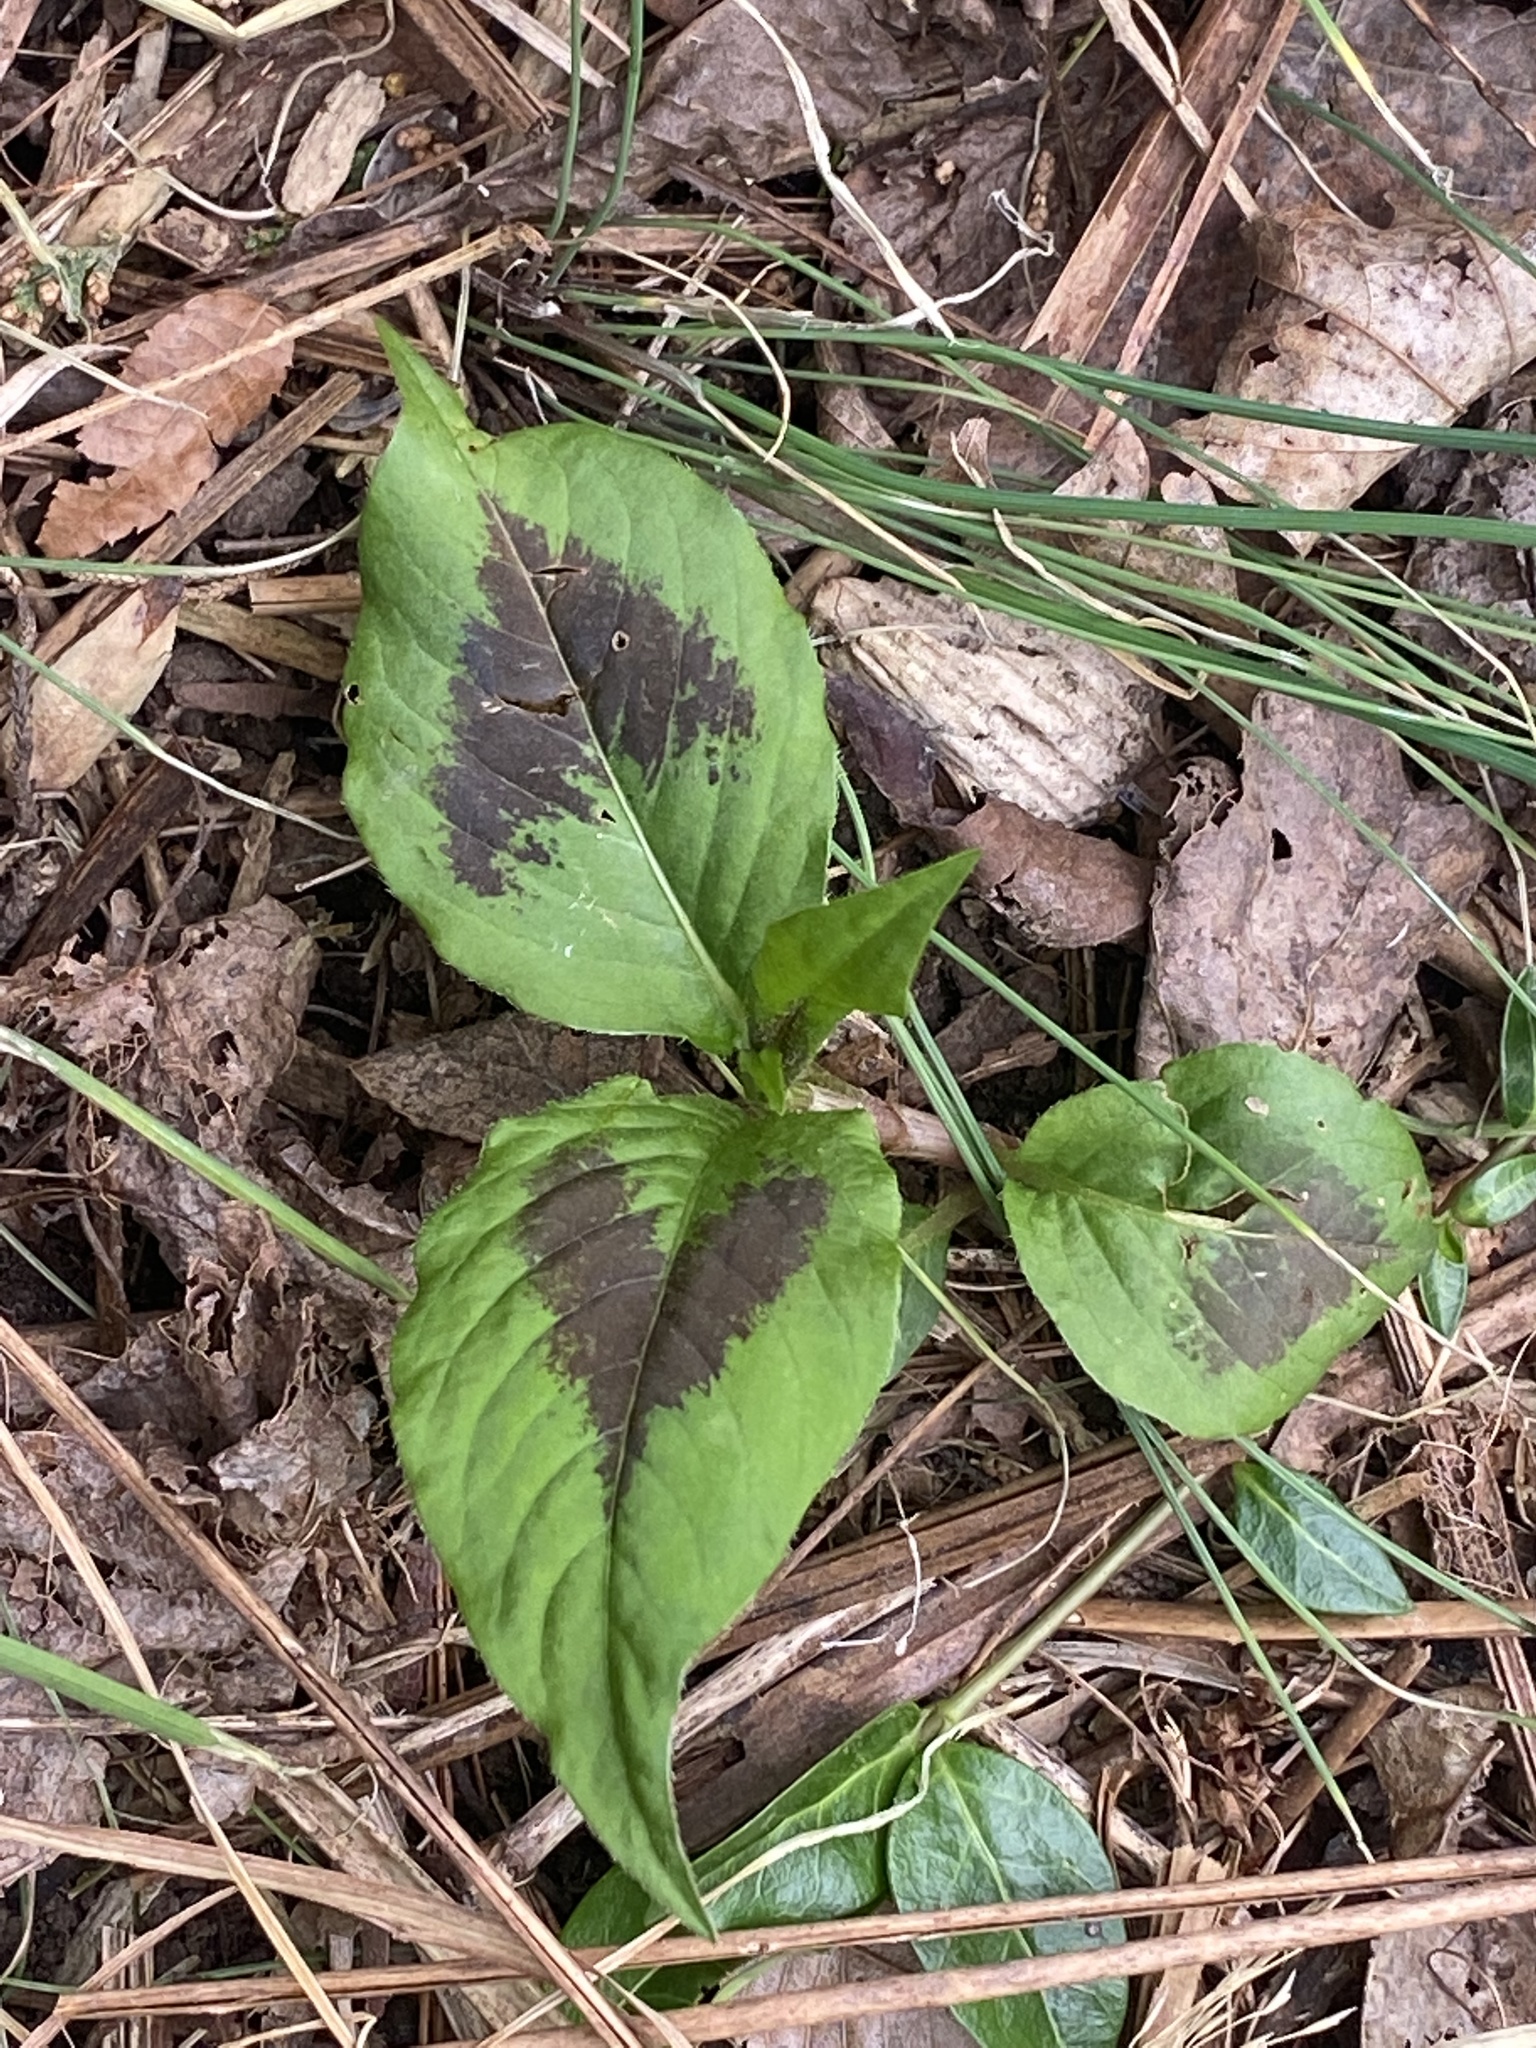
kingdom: Plantae
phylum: Tracheophyta
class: Magnoliopsida
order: Caryophyllales
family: Polygonaceae
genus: Persicaria
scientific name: Persicaria virginiana
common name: Jumpseed
